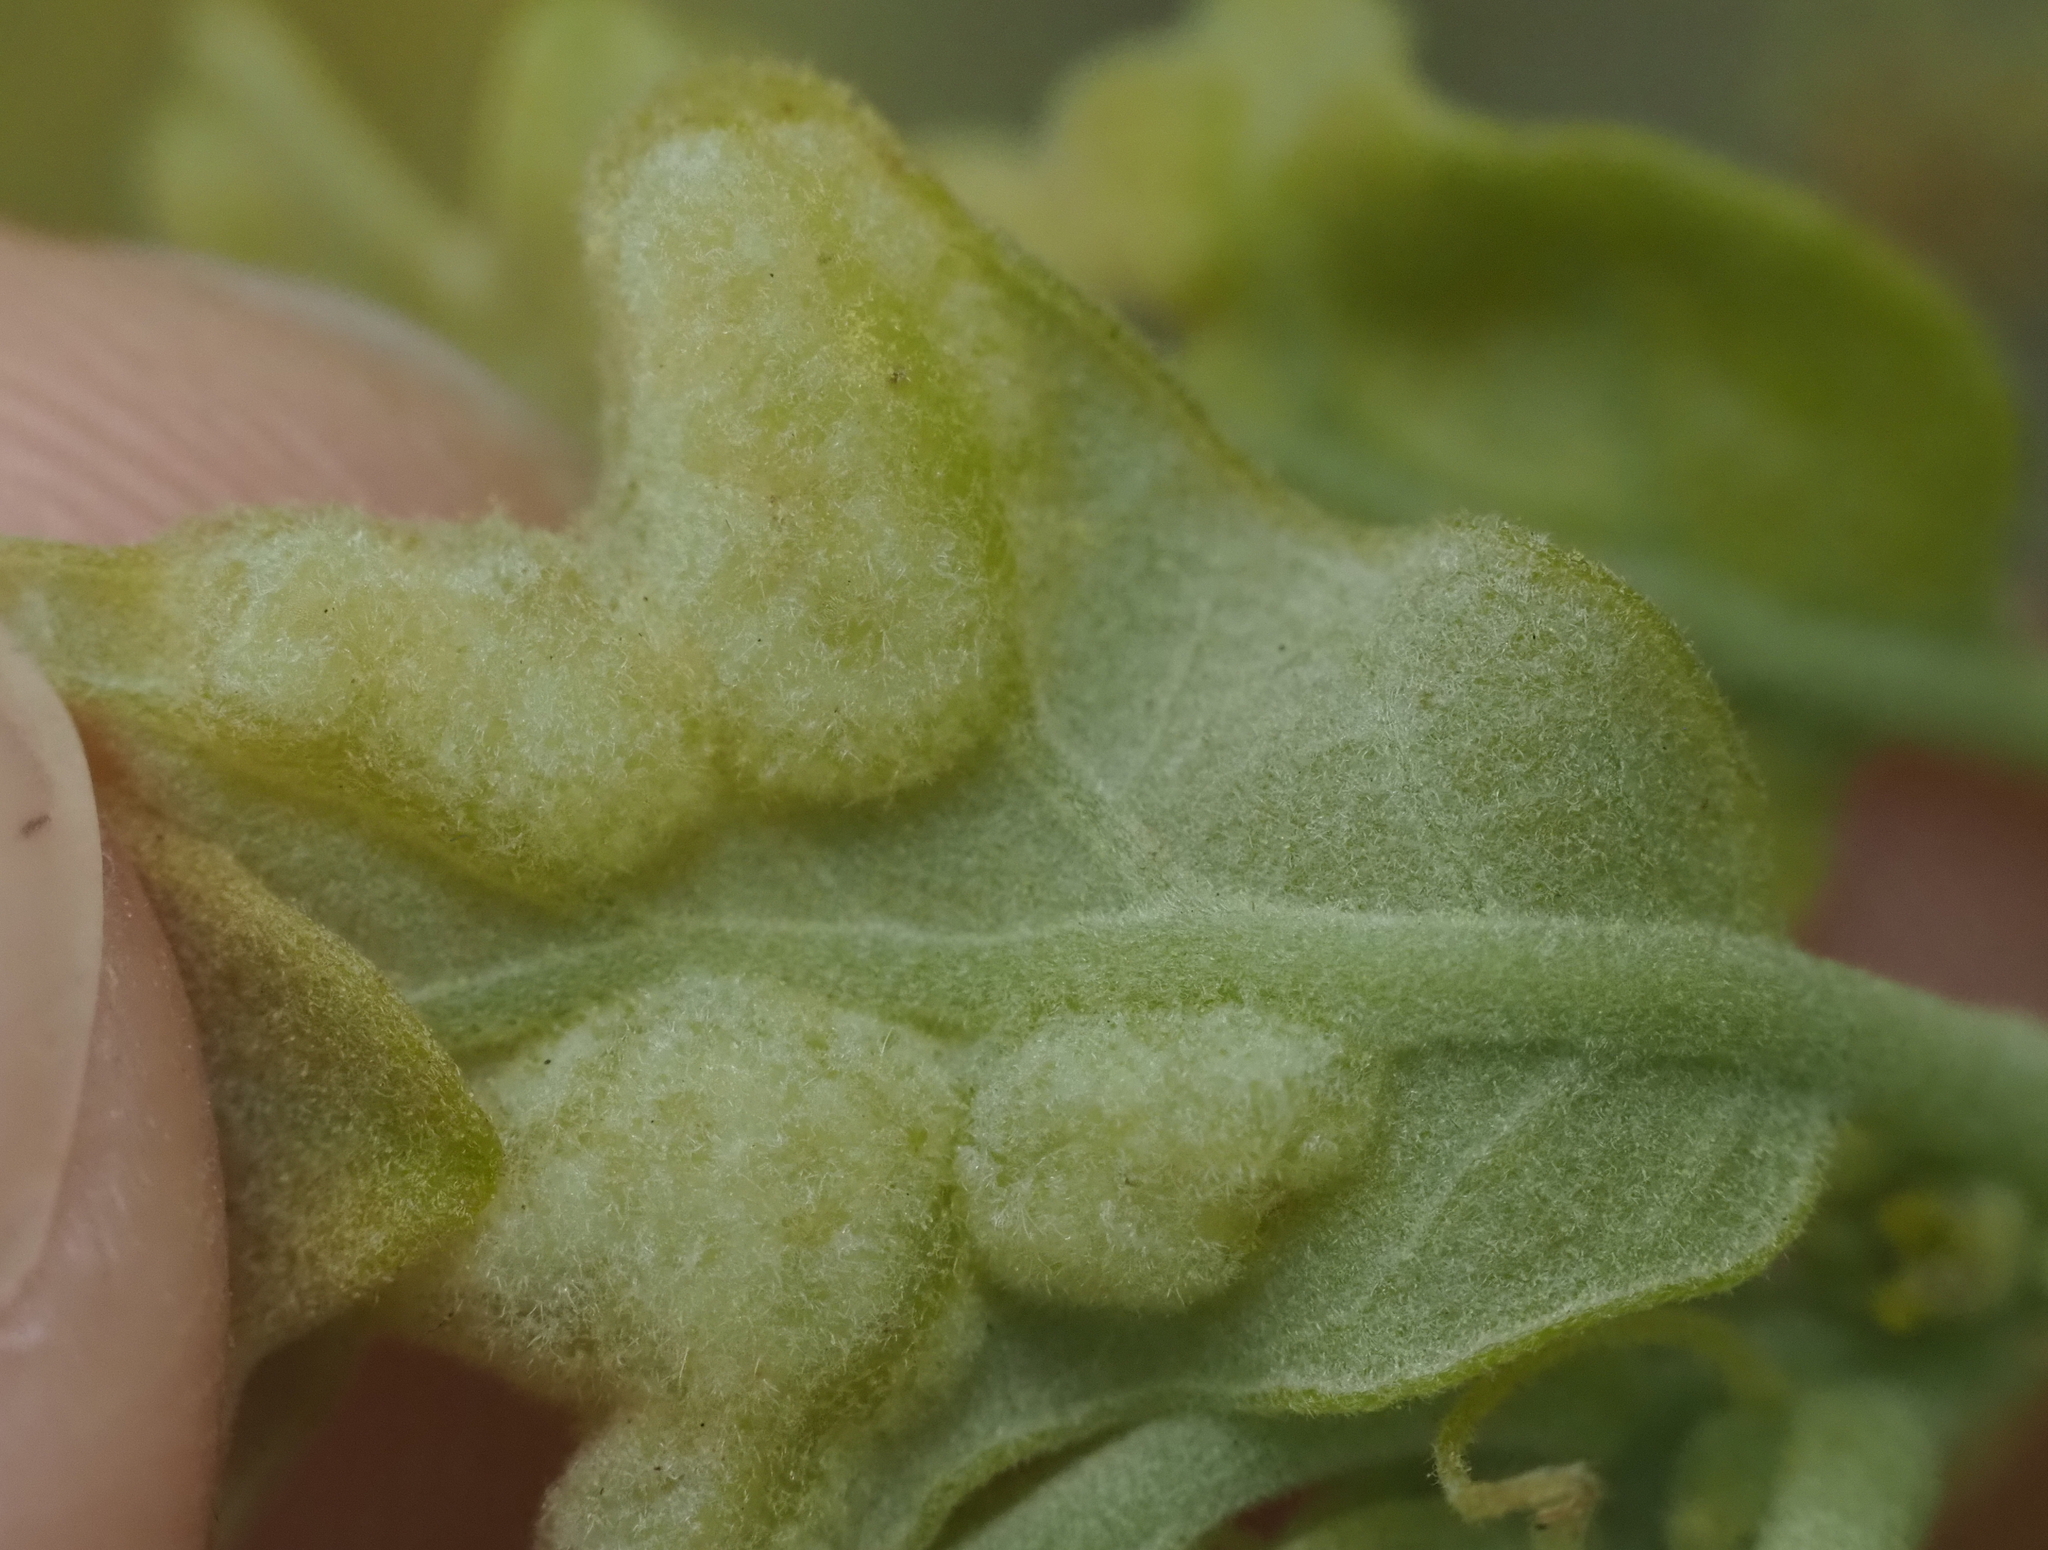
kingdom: Animalia
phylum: Arthropoda
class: Insecta
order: Hymenoptera
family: Cynipidae
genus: Neuroterus
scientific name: Neuroterus quercusirregularis
